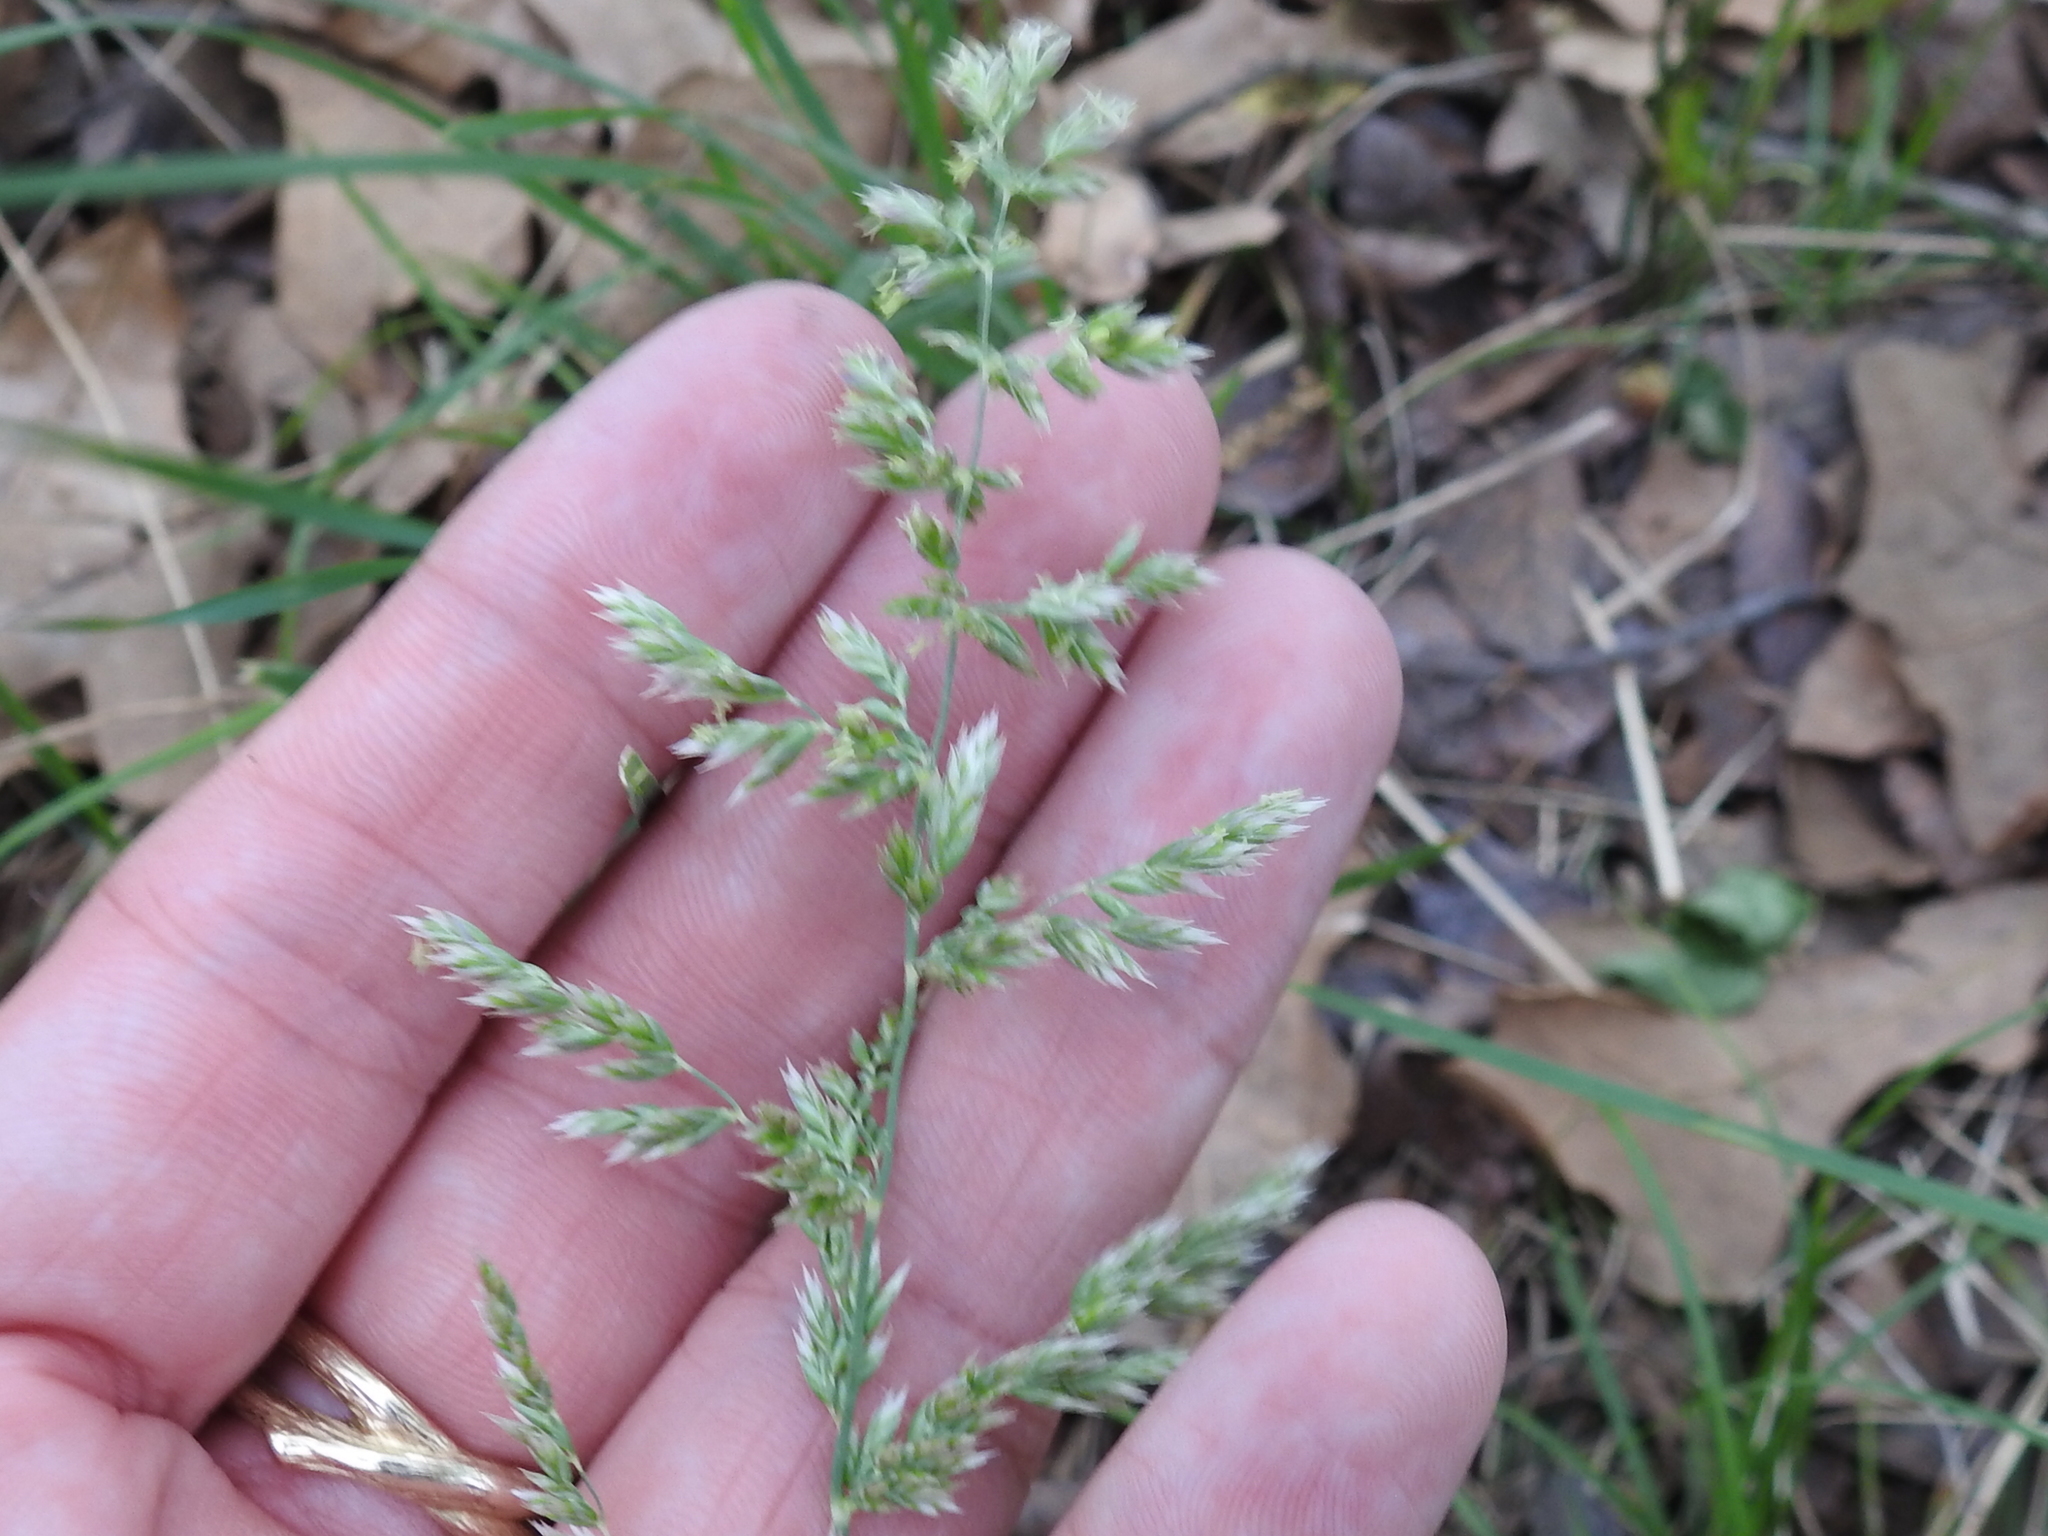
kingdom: Plantae
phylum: Tracheophyta
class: Liliopsida
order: Poales
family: Poaceae
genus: Poa
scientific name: Poa arachnifera
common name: Texas bluegrass
